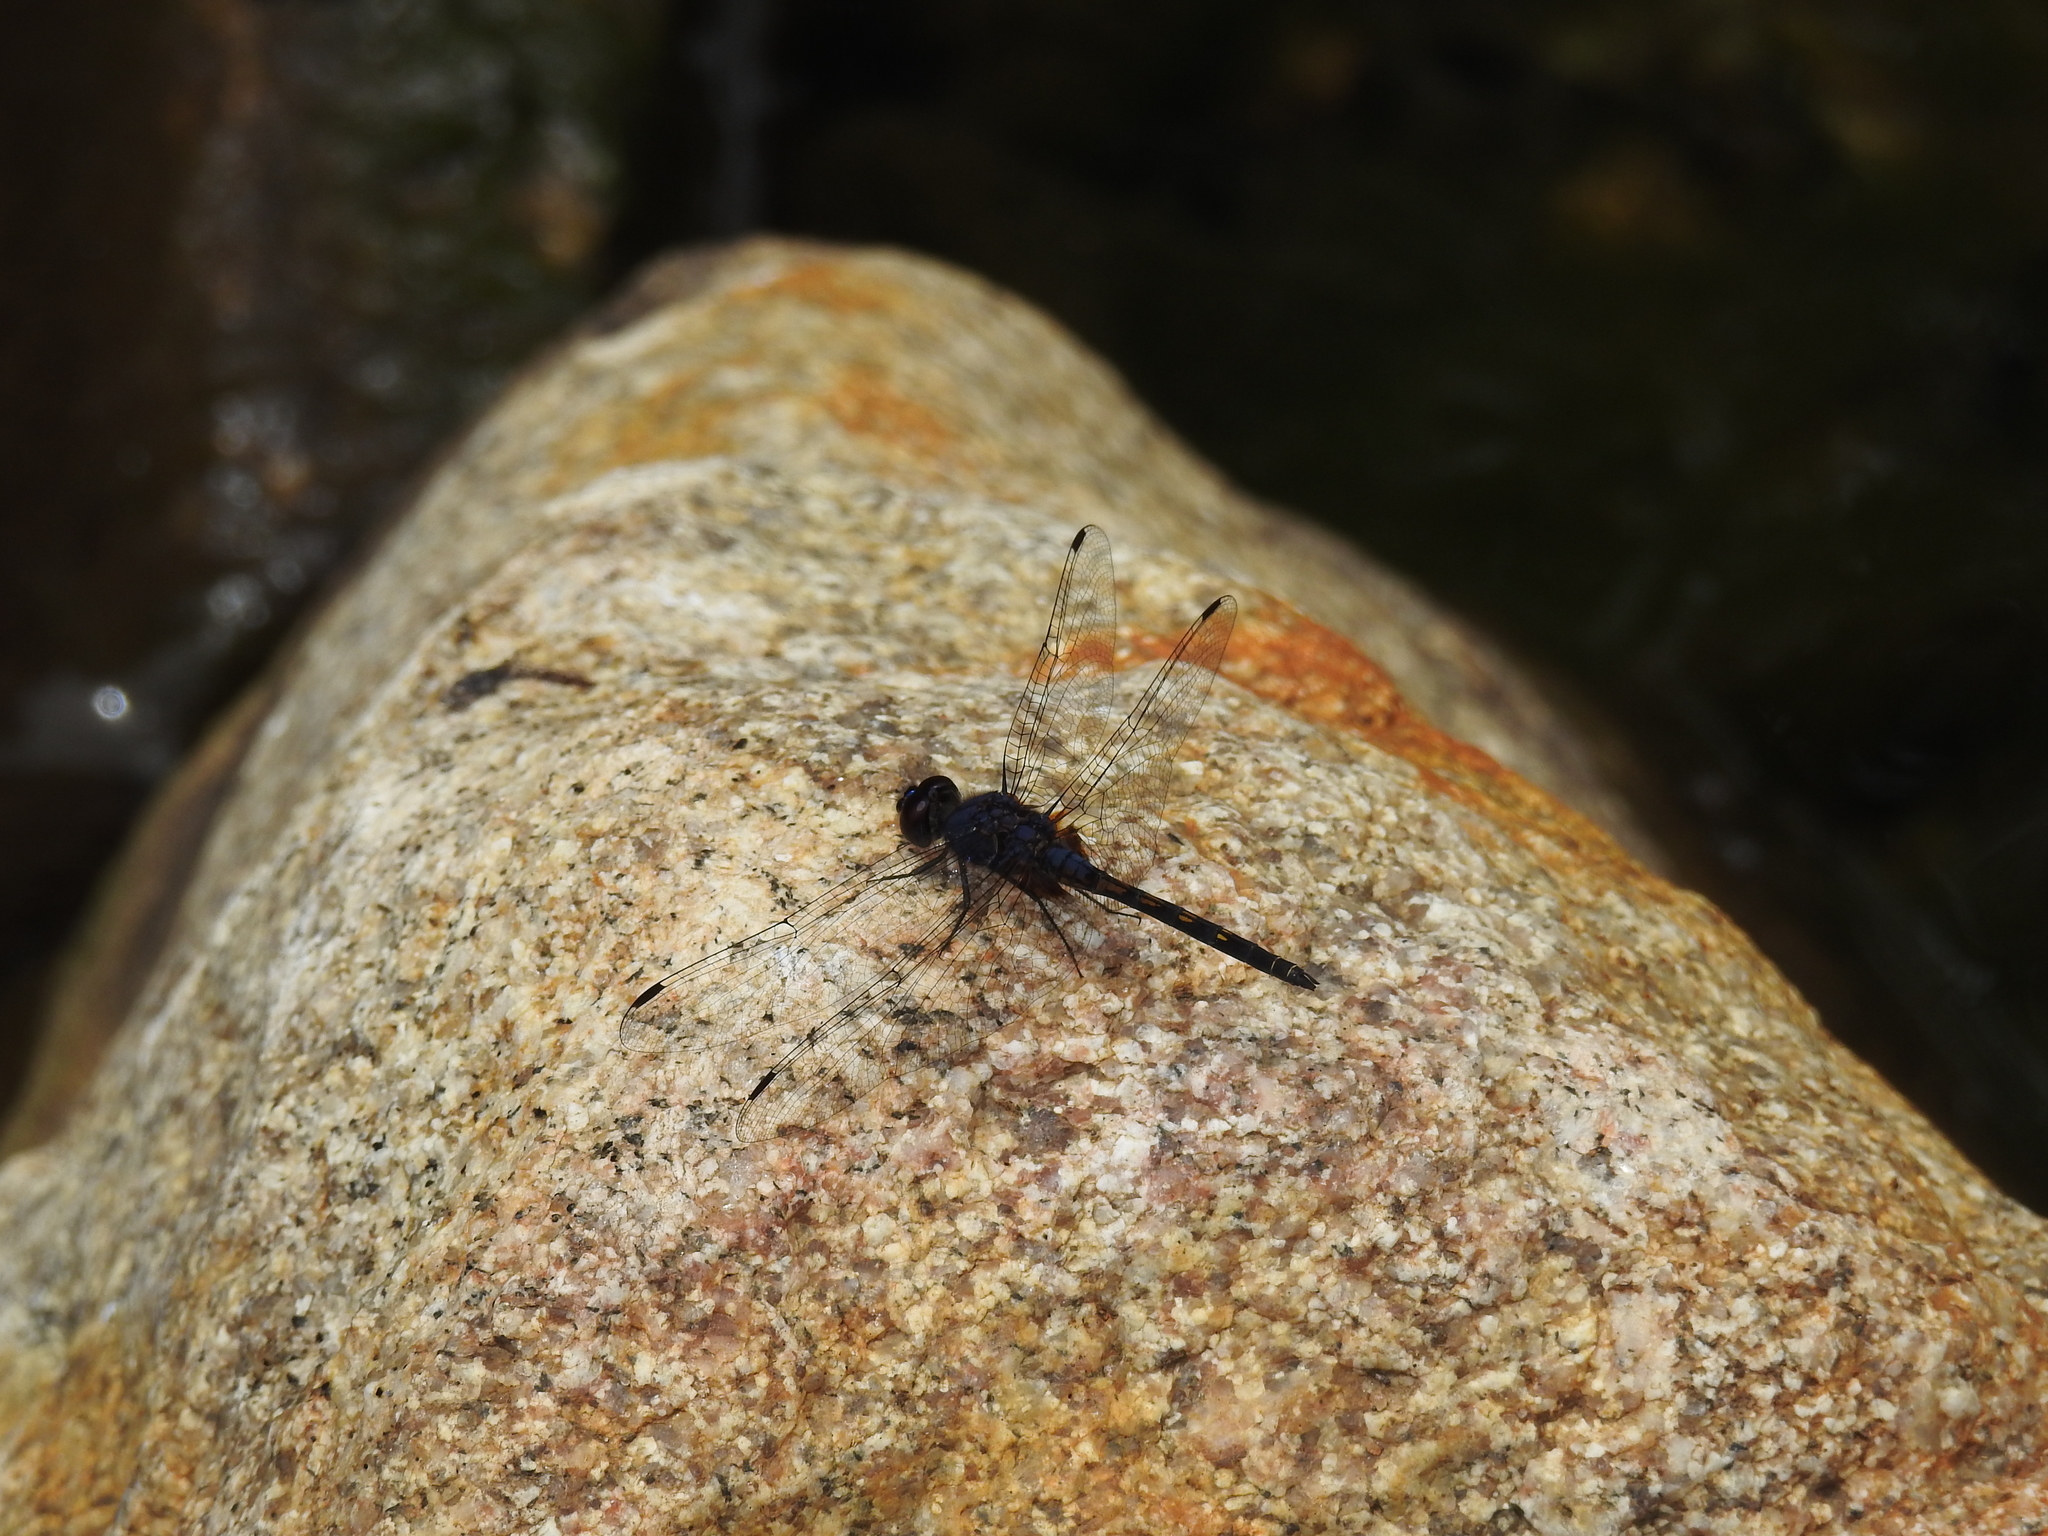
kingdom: Animalia
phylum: Arthropoda
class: Insecta
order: Odonata
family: Libellulidae
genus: Trithemis
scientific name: Trithemis festiva
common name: Indigo dropwing
